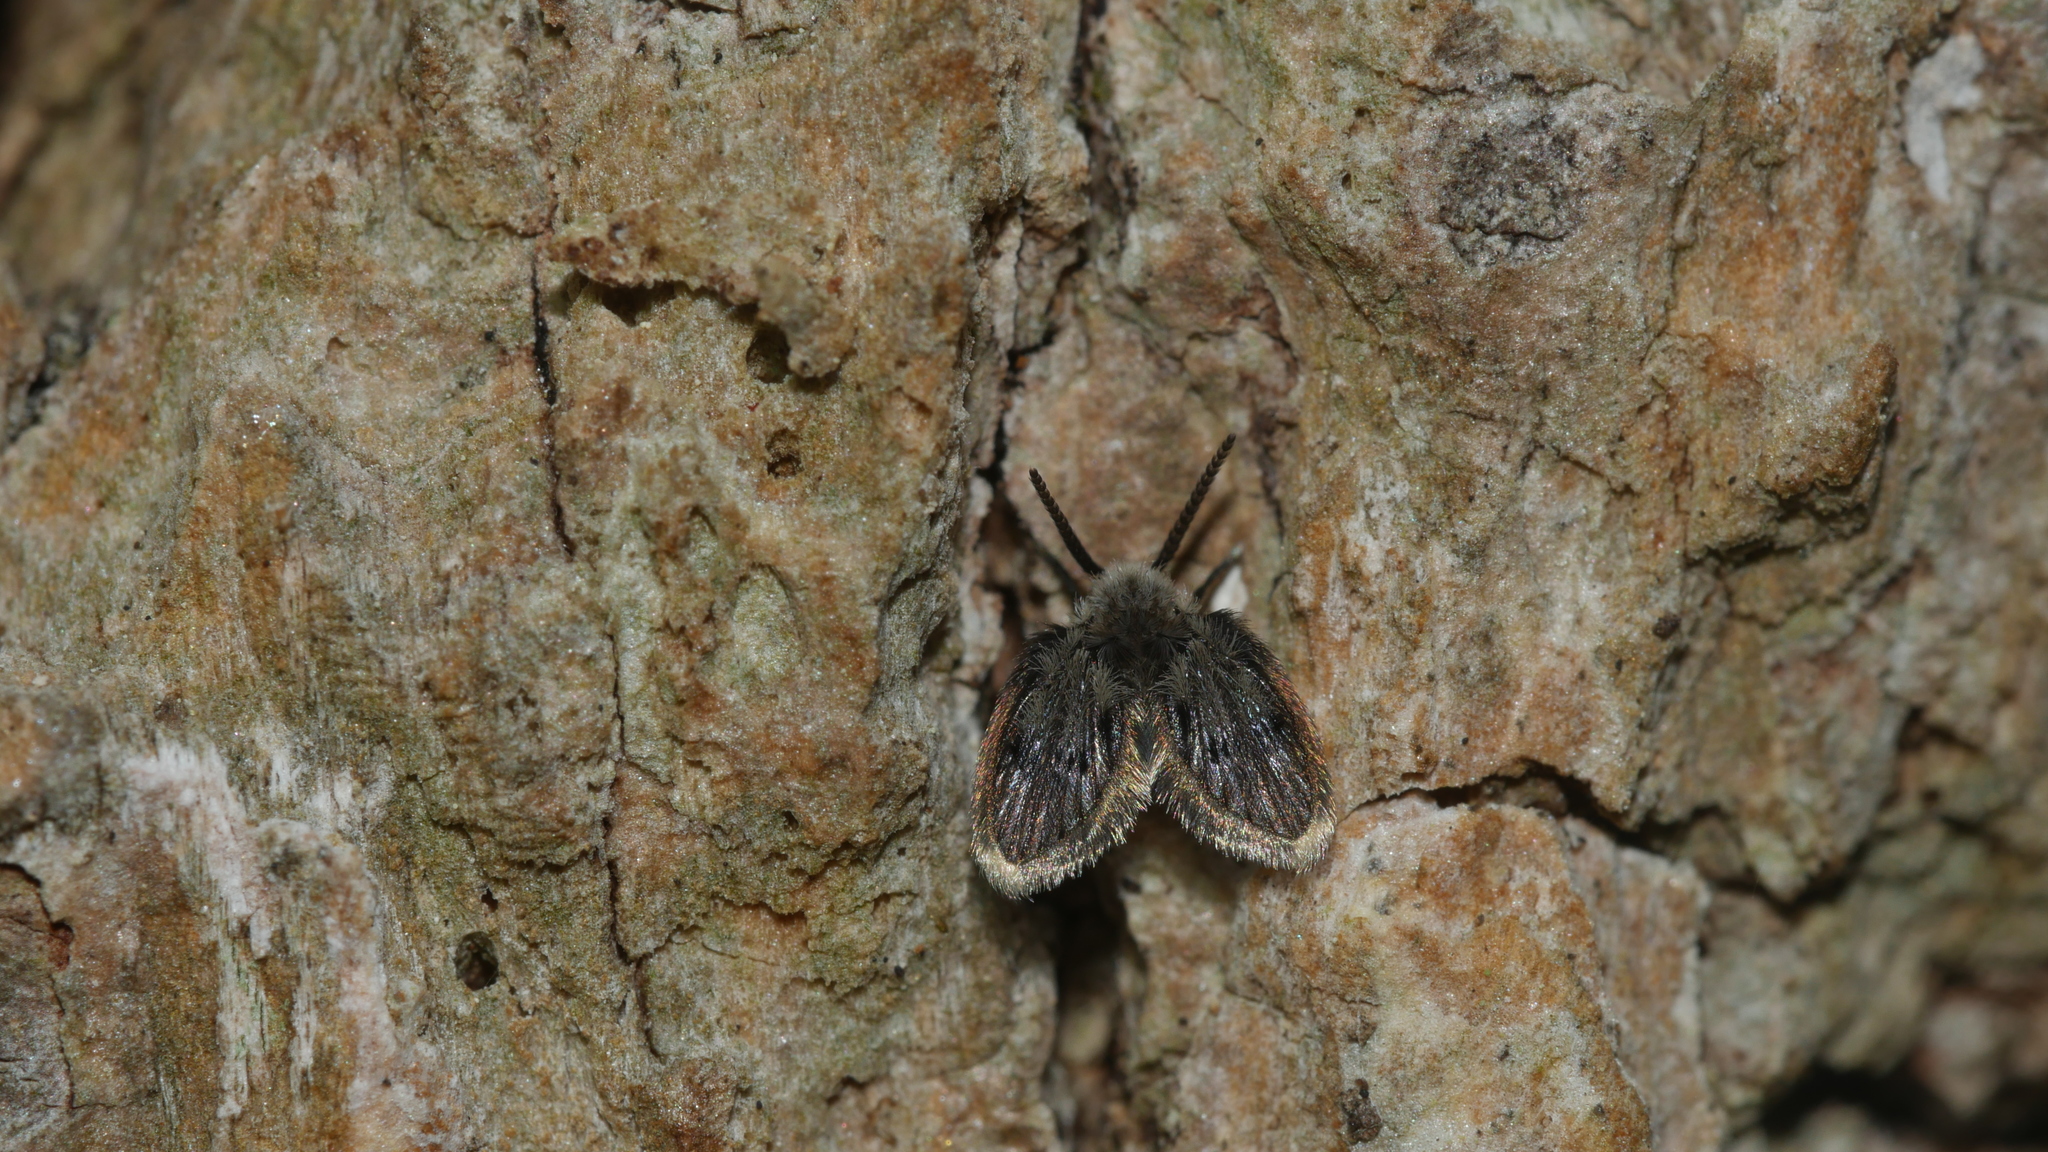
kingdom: Animalia
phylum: Arthropoda
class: Insecta
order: Diptera
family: Psychodidae
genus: Lepiseodina
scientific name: Lepiseodina
